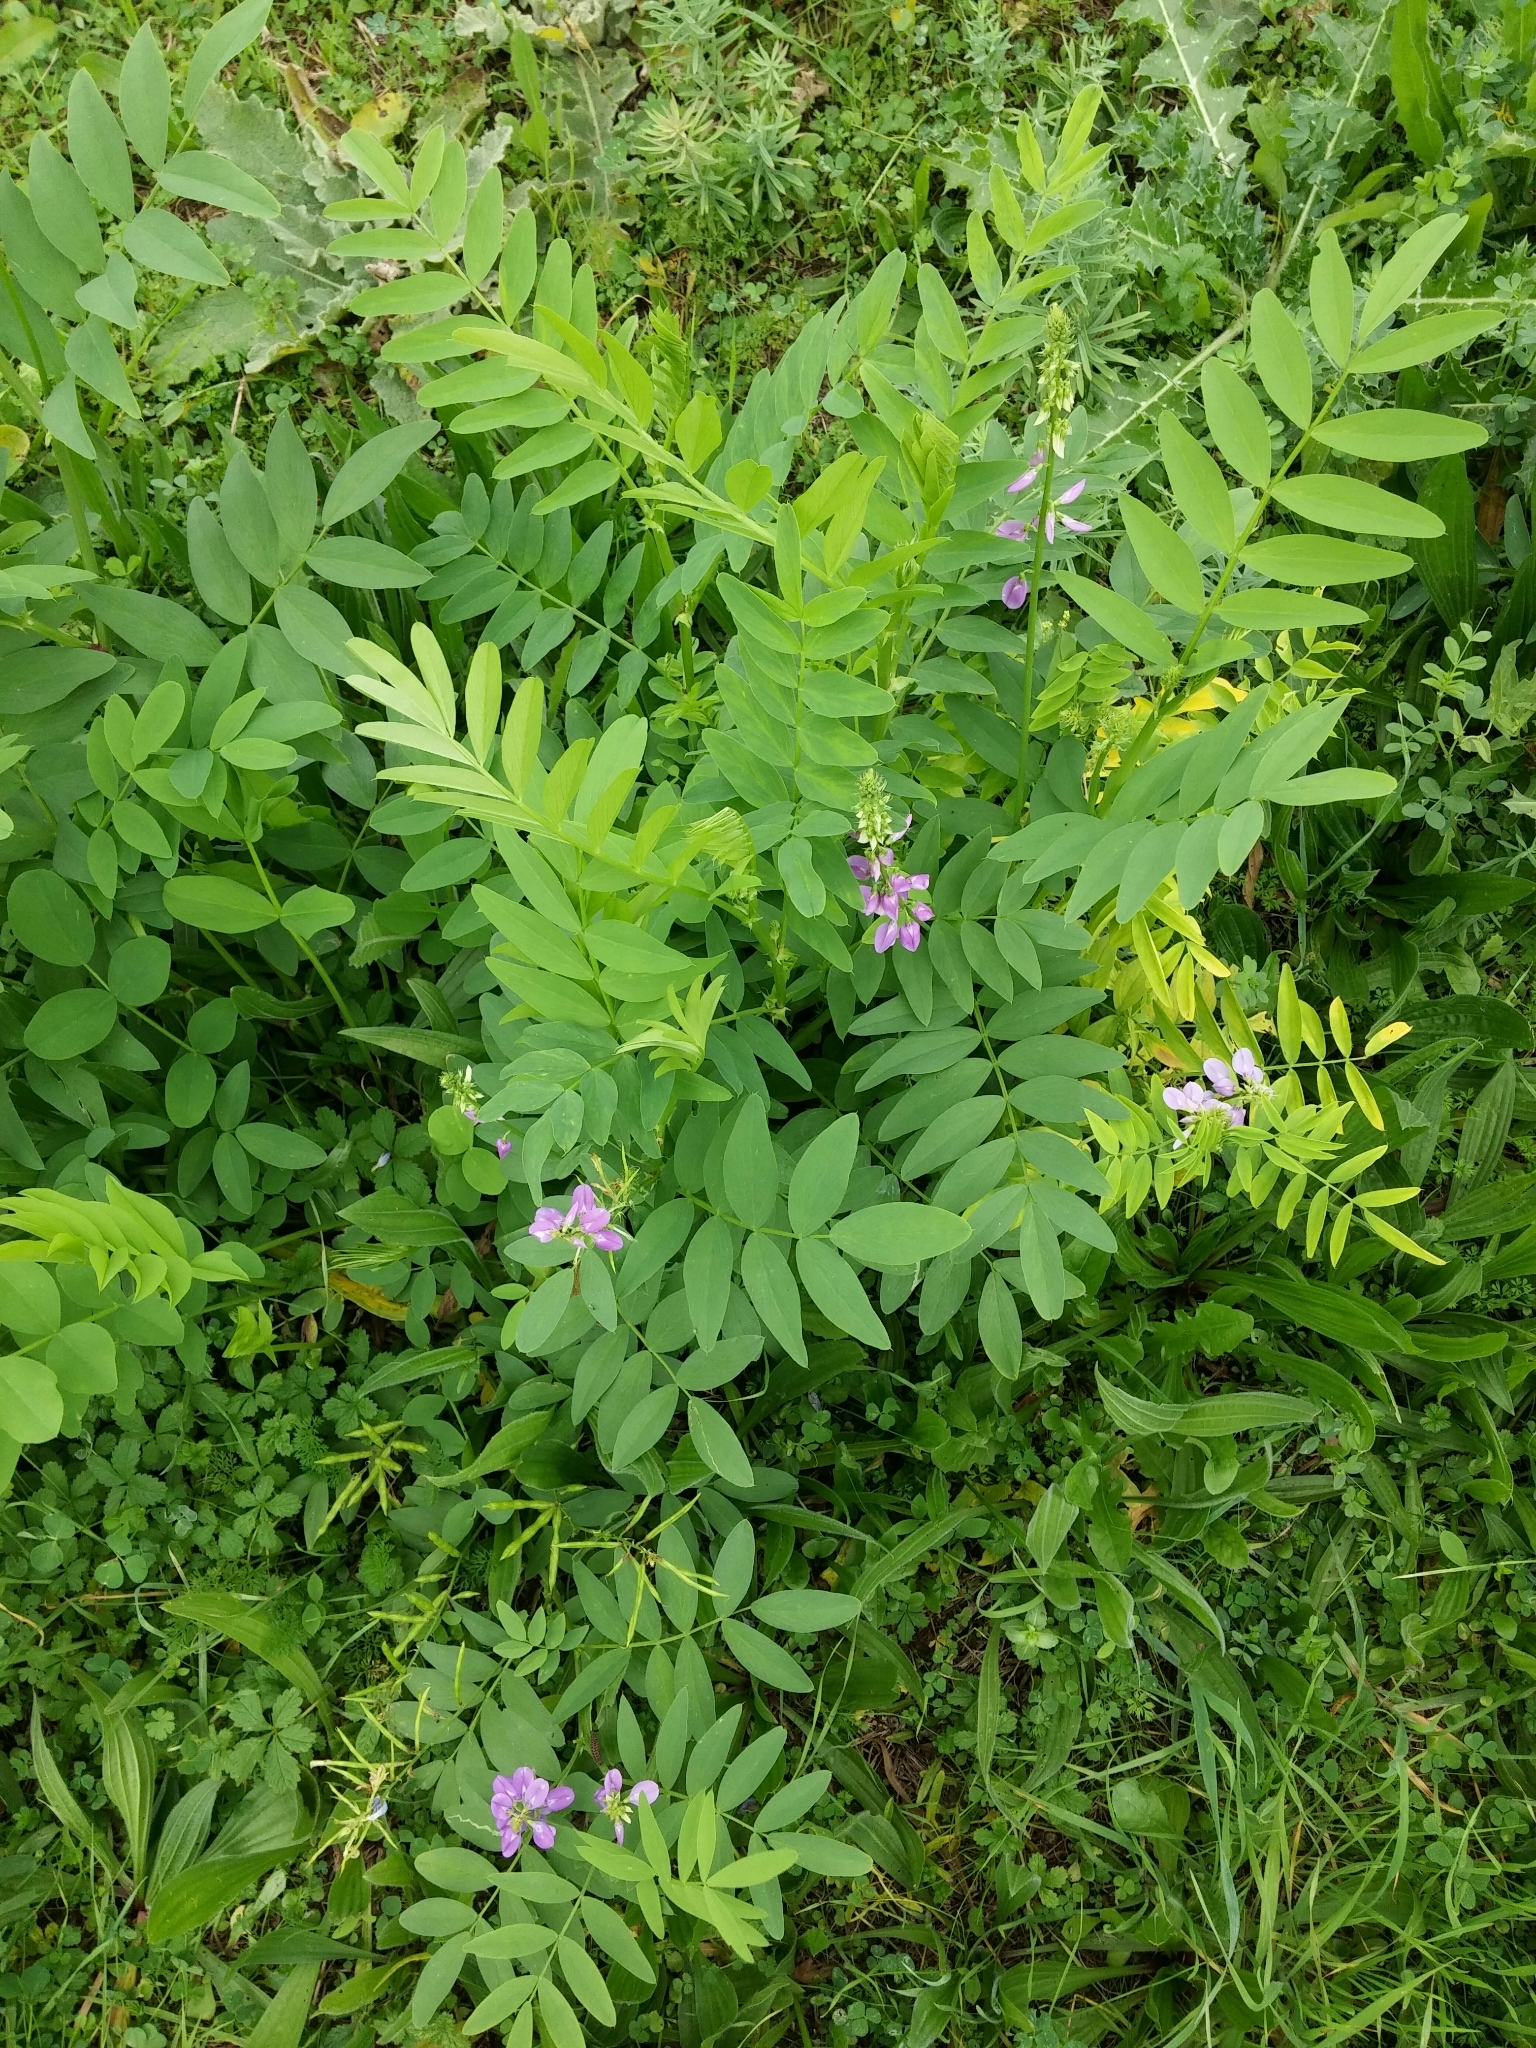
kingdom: Plantae
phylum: Tracheophyta
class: Magnoliopsida
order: Fabales
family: Fabaceae
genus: Galega
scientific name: Galega officinalis
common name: Goat's-rue
